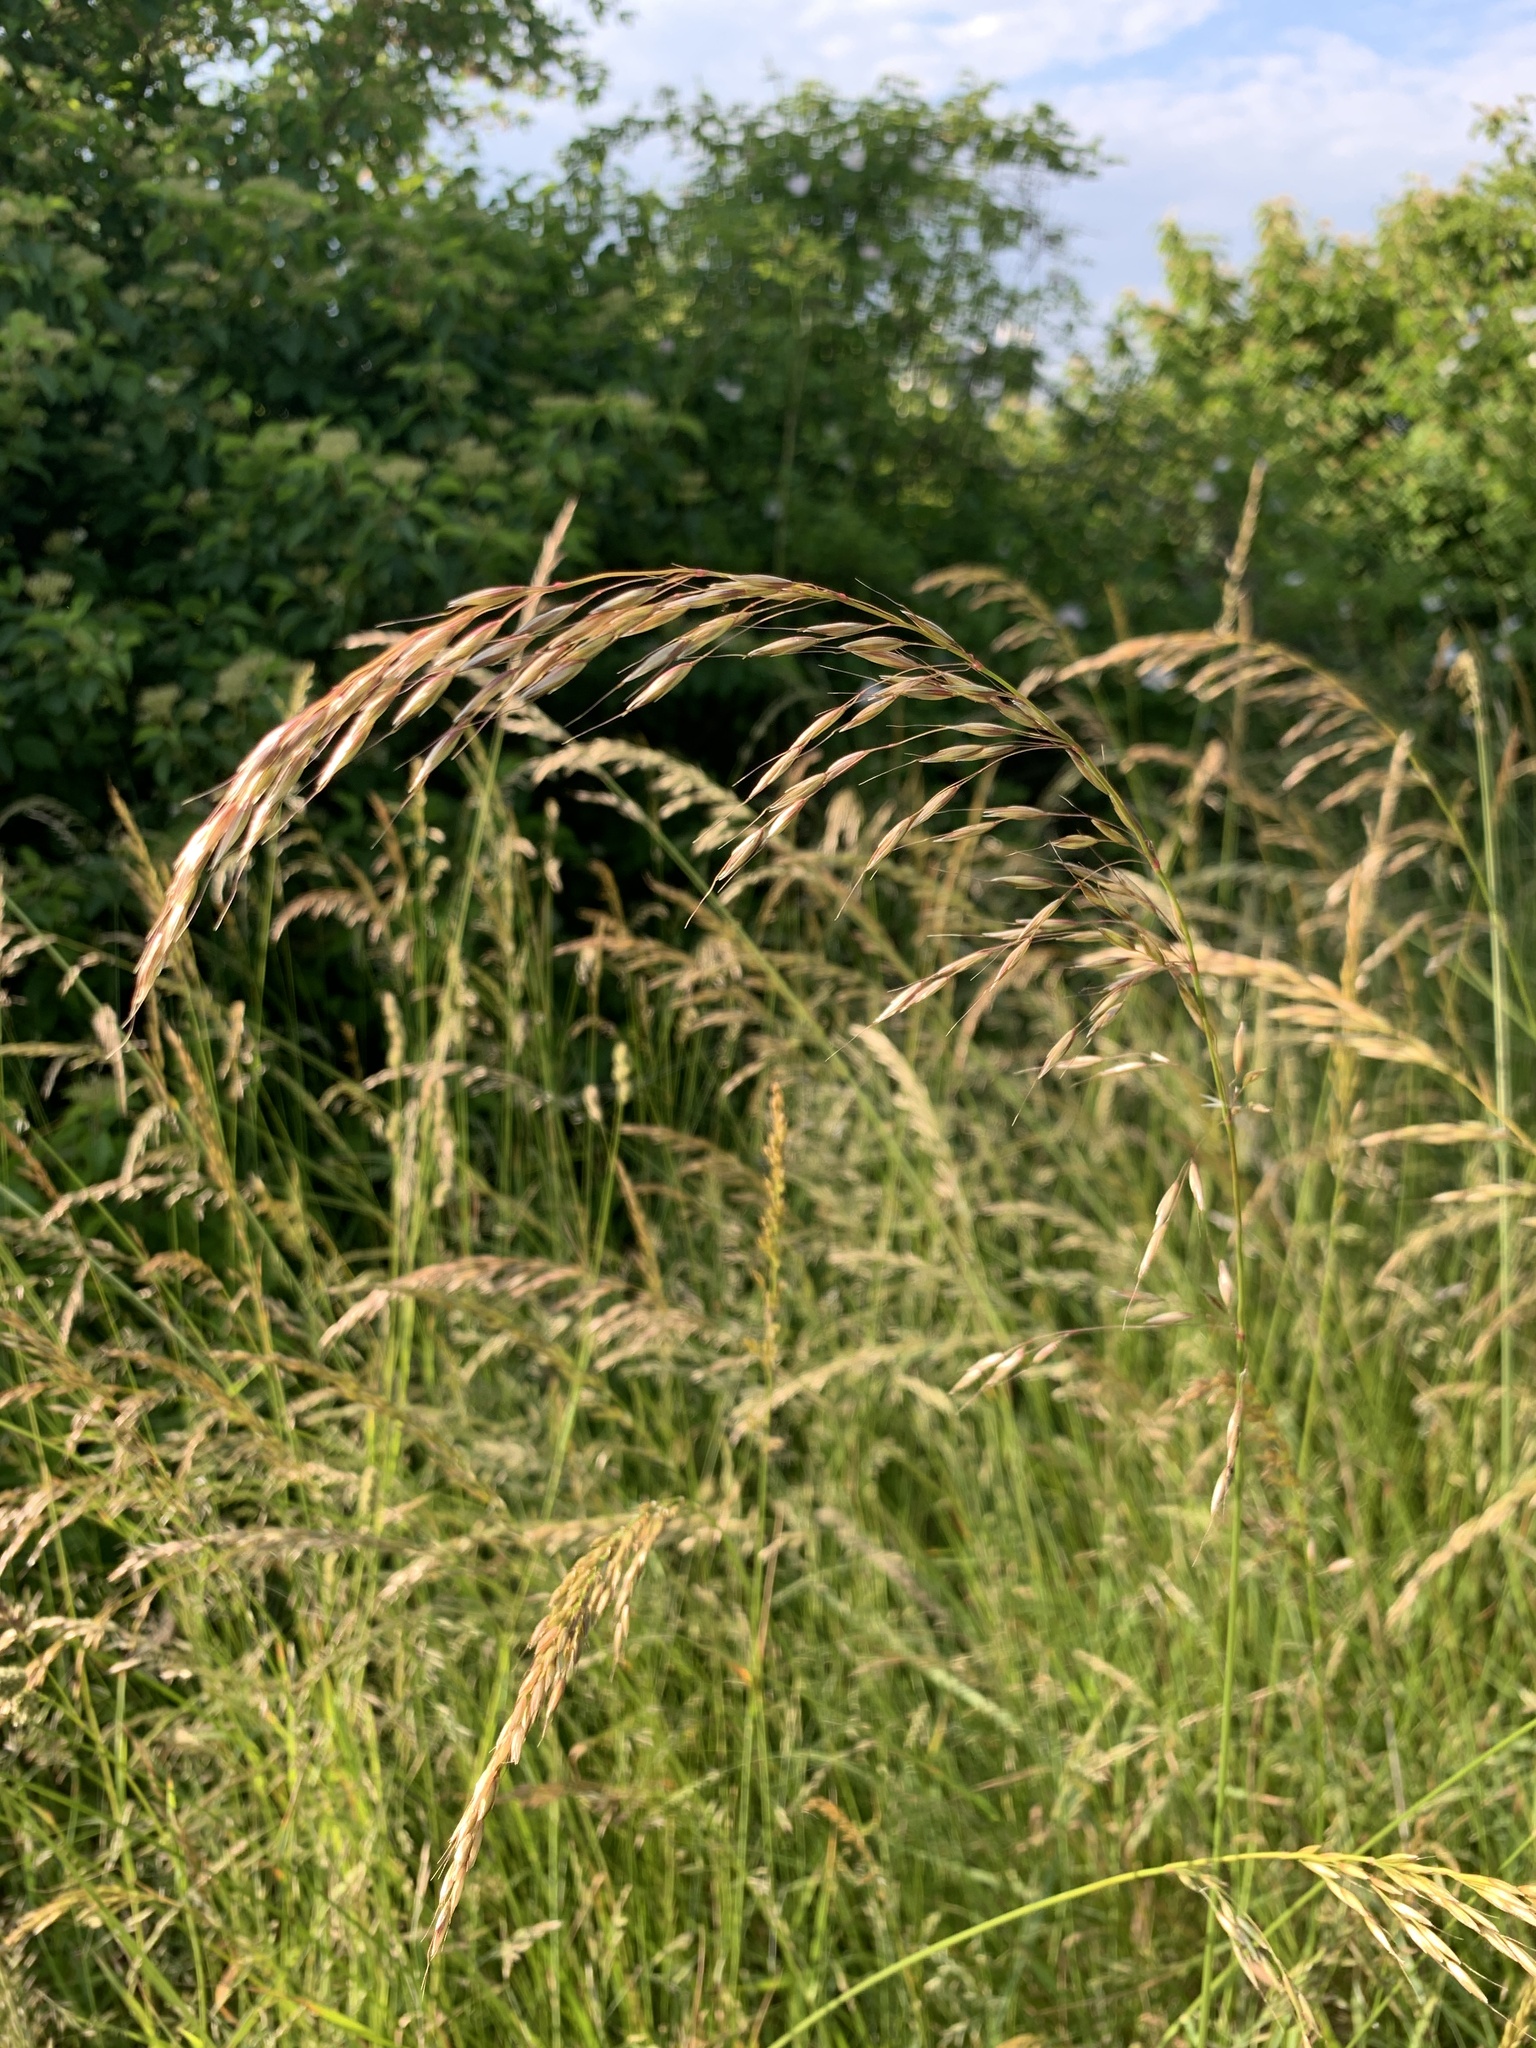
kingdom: Plantae
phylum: Tracheophyta
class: Liliopsida
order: Poales
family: Poaceae
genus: Arrhenatherum
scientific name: Arrhenatherum elatius
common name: Tall oatgrass
